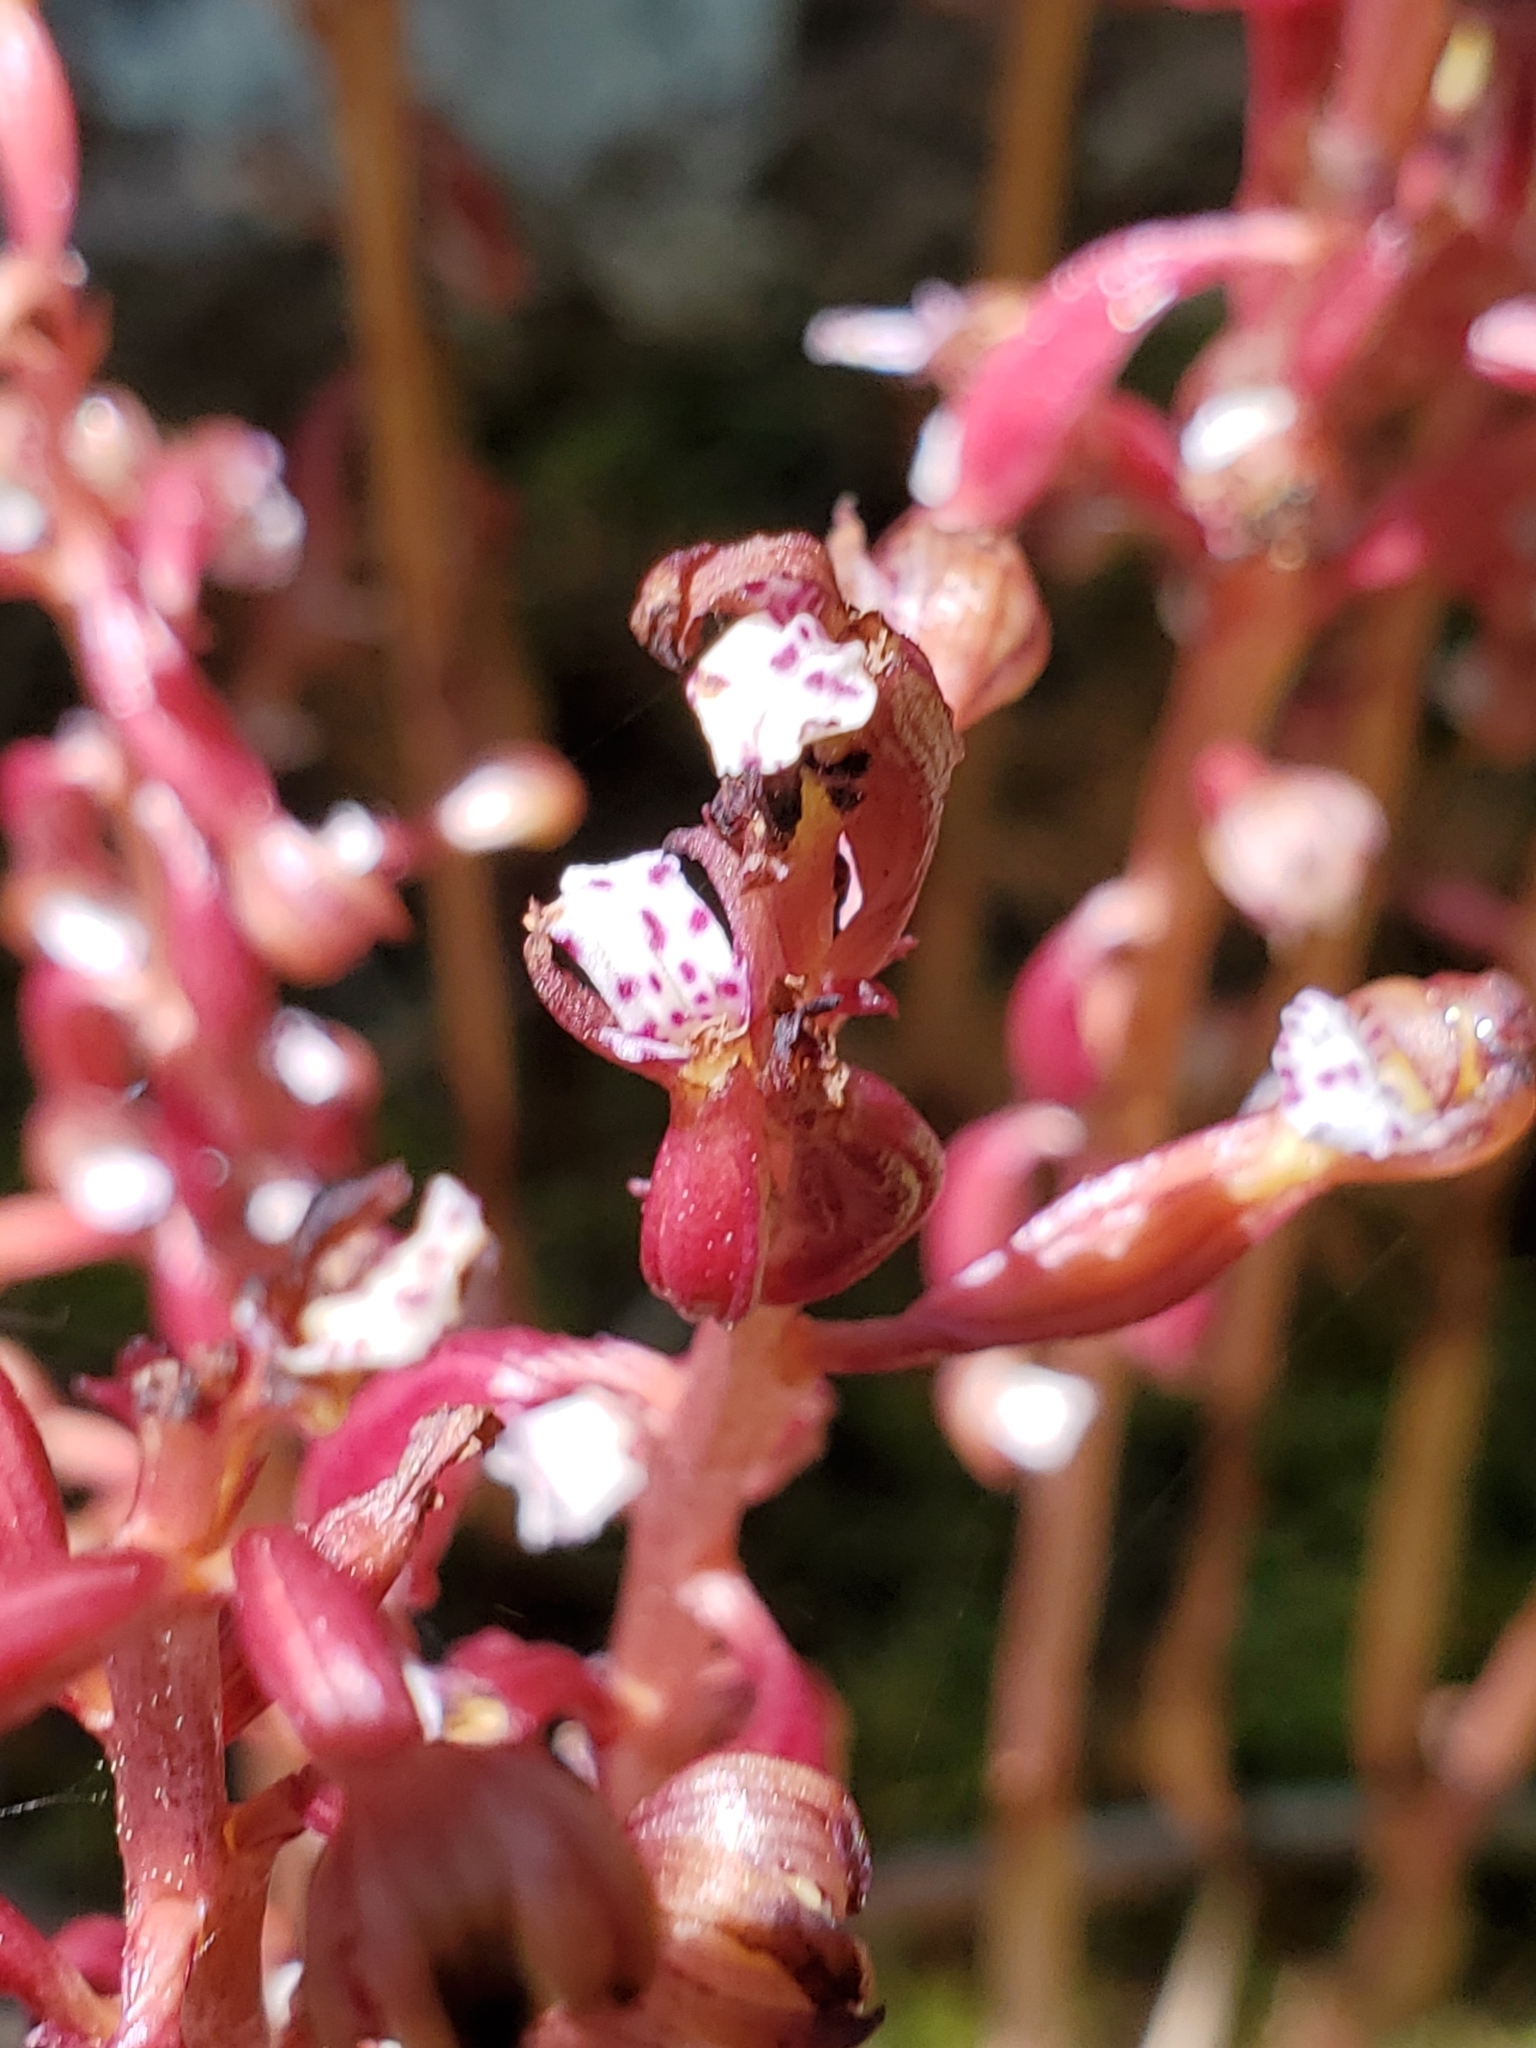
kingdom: Plantae
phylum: Tracheophyta
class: Liliopsida
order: Asparagales
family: Orchidaceae
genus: Corallorhiza
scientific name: Corallorhiza maculata
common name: Spotted coralroot
